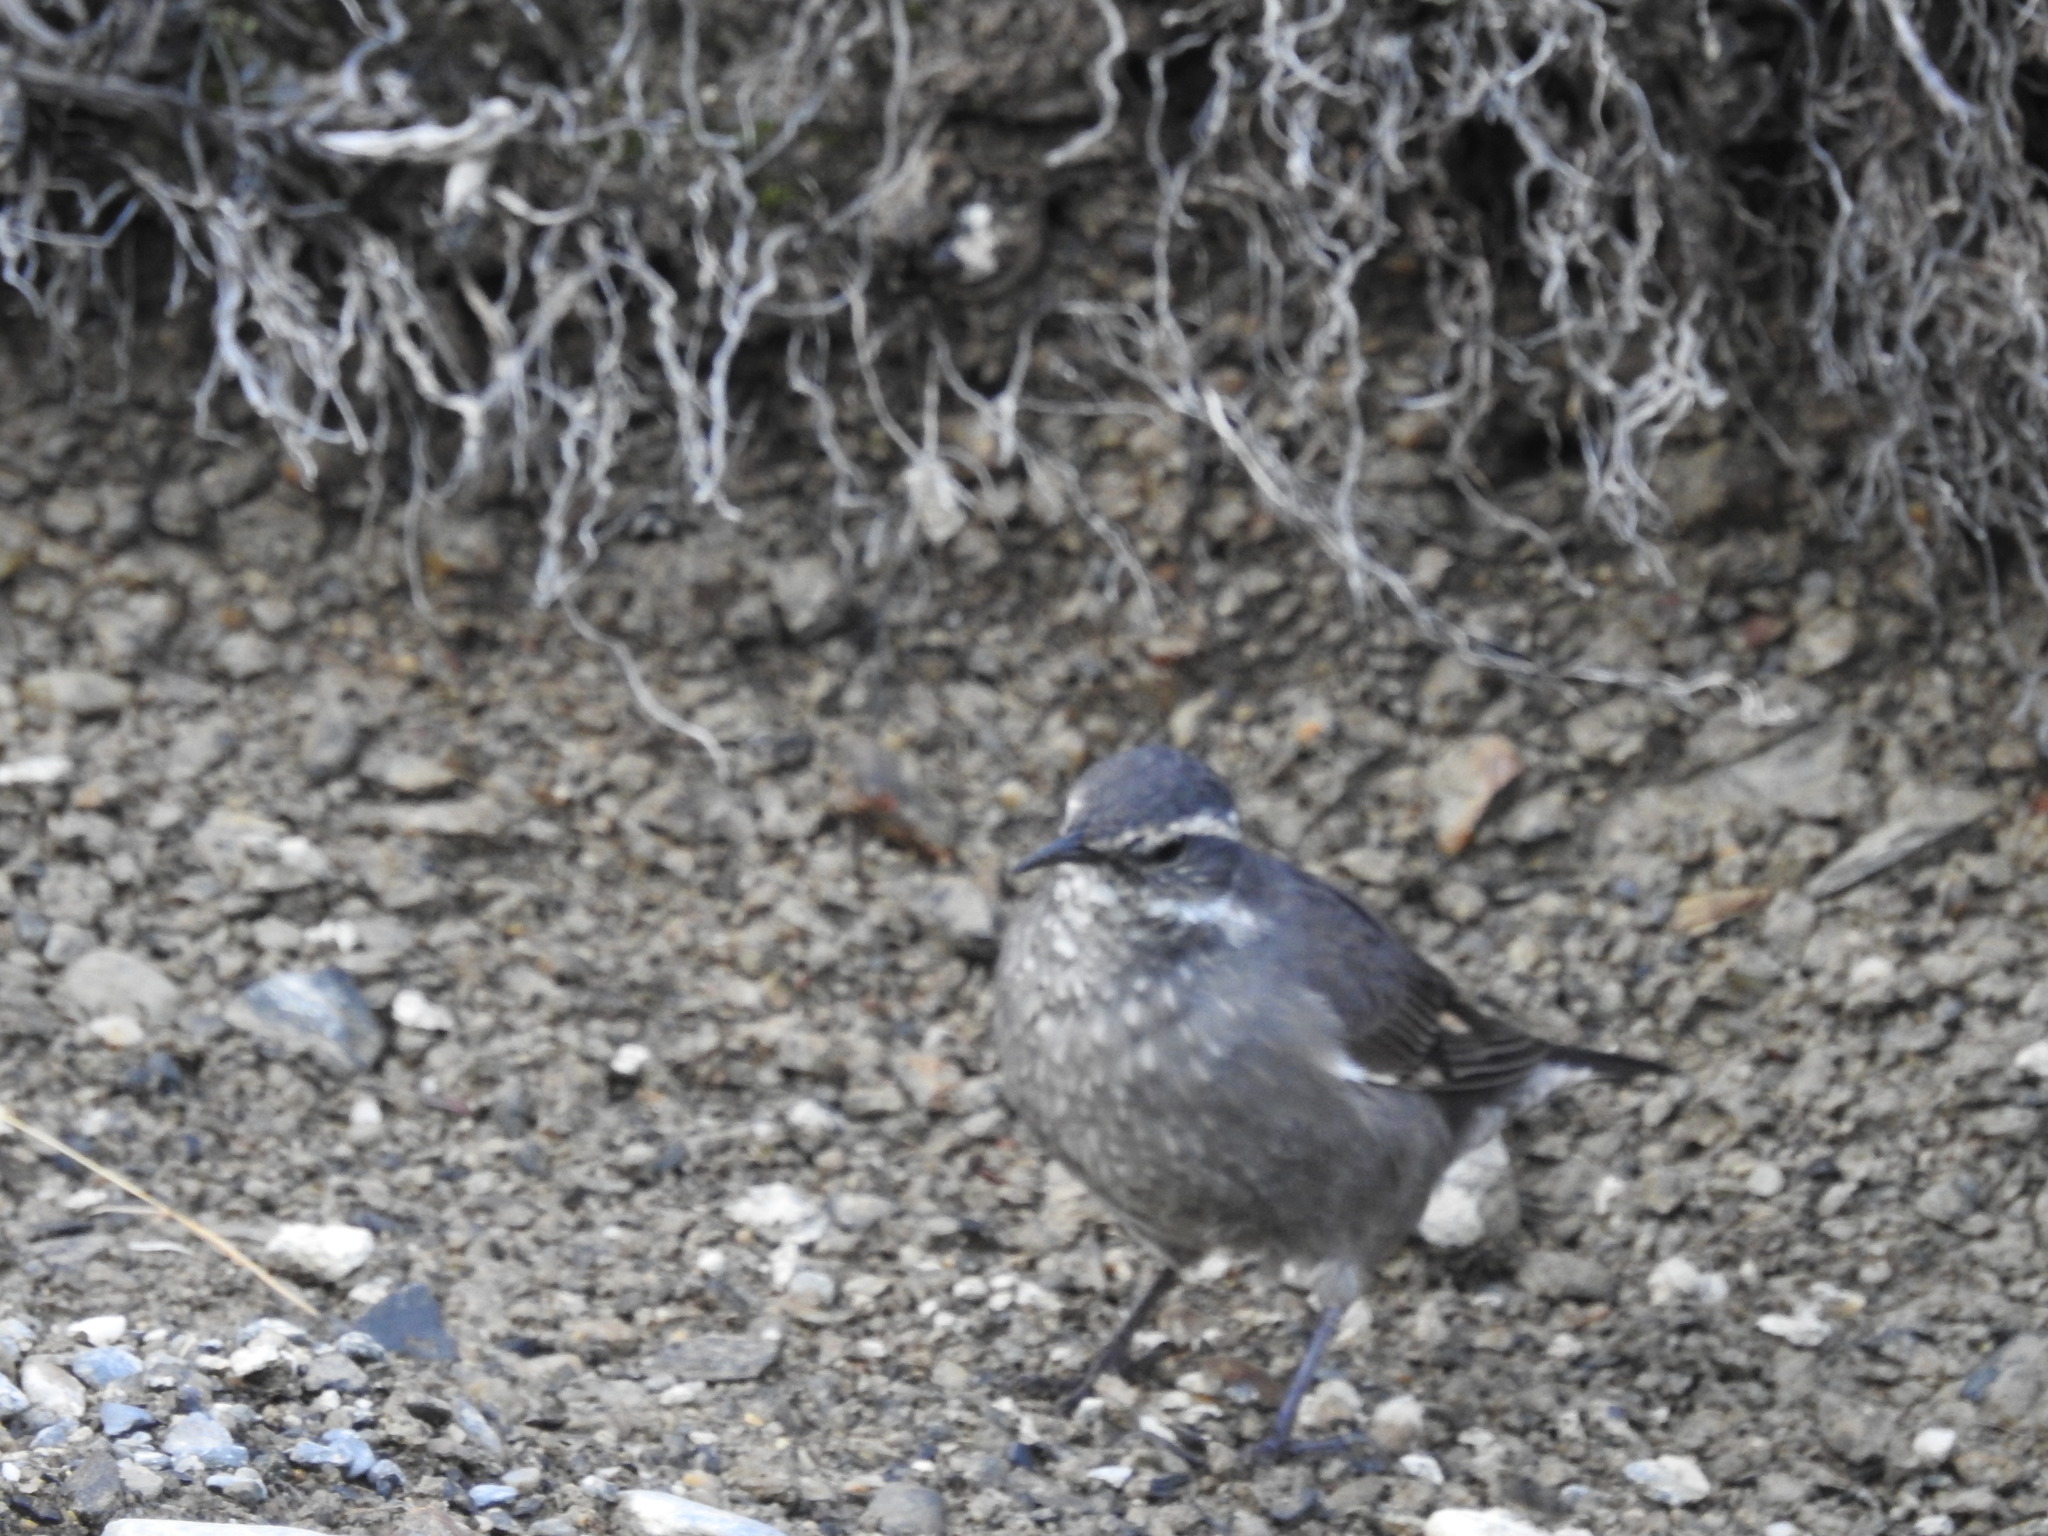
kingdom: Animalia
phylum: Chordata
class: Aves
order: Passeriformes
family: Furnariidae
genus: Cinclodes
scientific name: Cinclodes oustaleti
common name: Grey-flanked cinclodes
